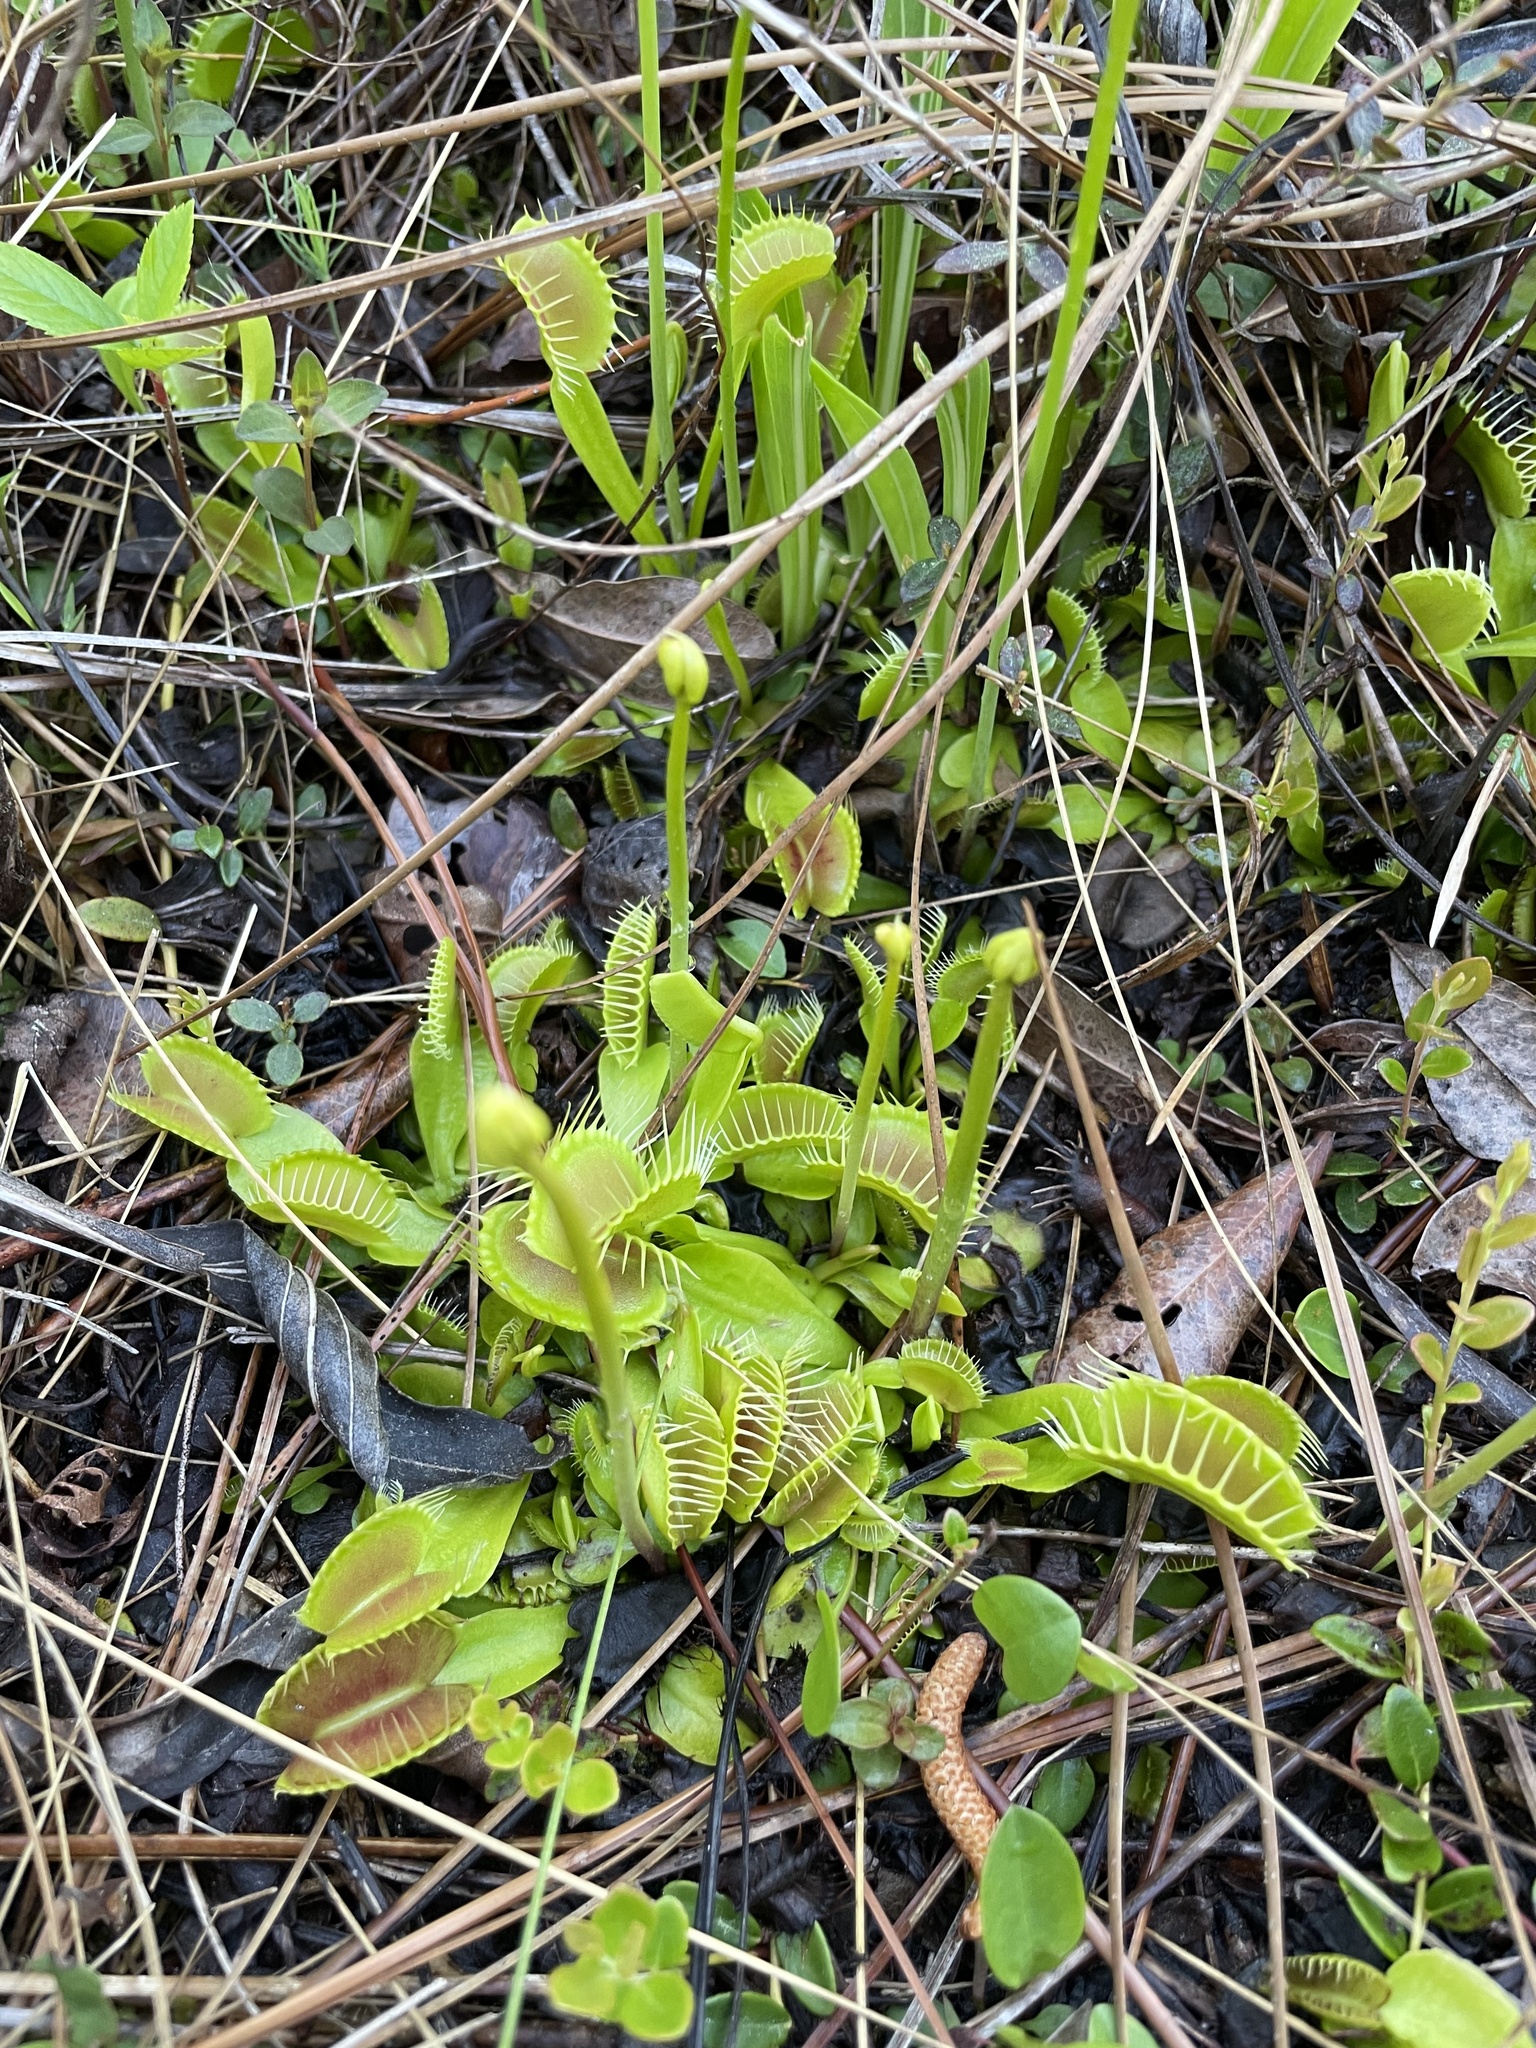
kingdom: Plantae
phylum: Tracheophyta
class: Magnoliopsida
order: Caryophyllales
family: Droseraceae
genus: Dionaea
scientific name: Dionaea muscipula
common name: Venus flytrap
